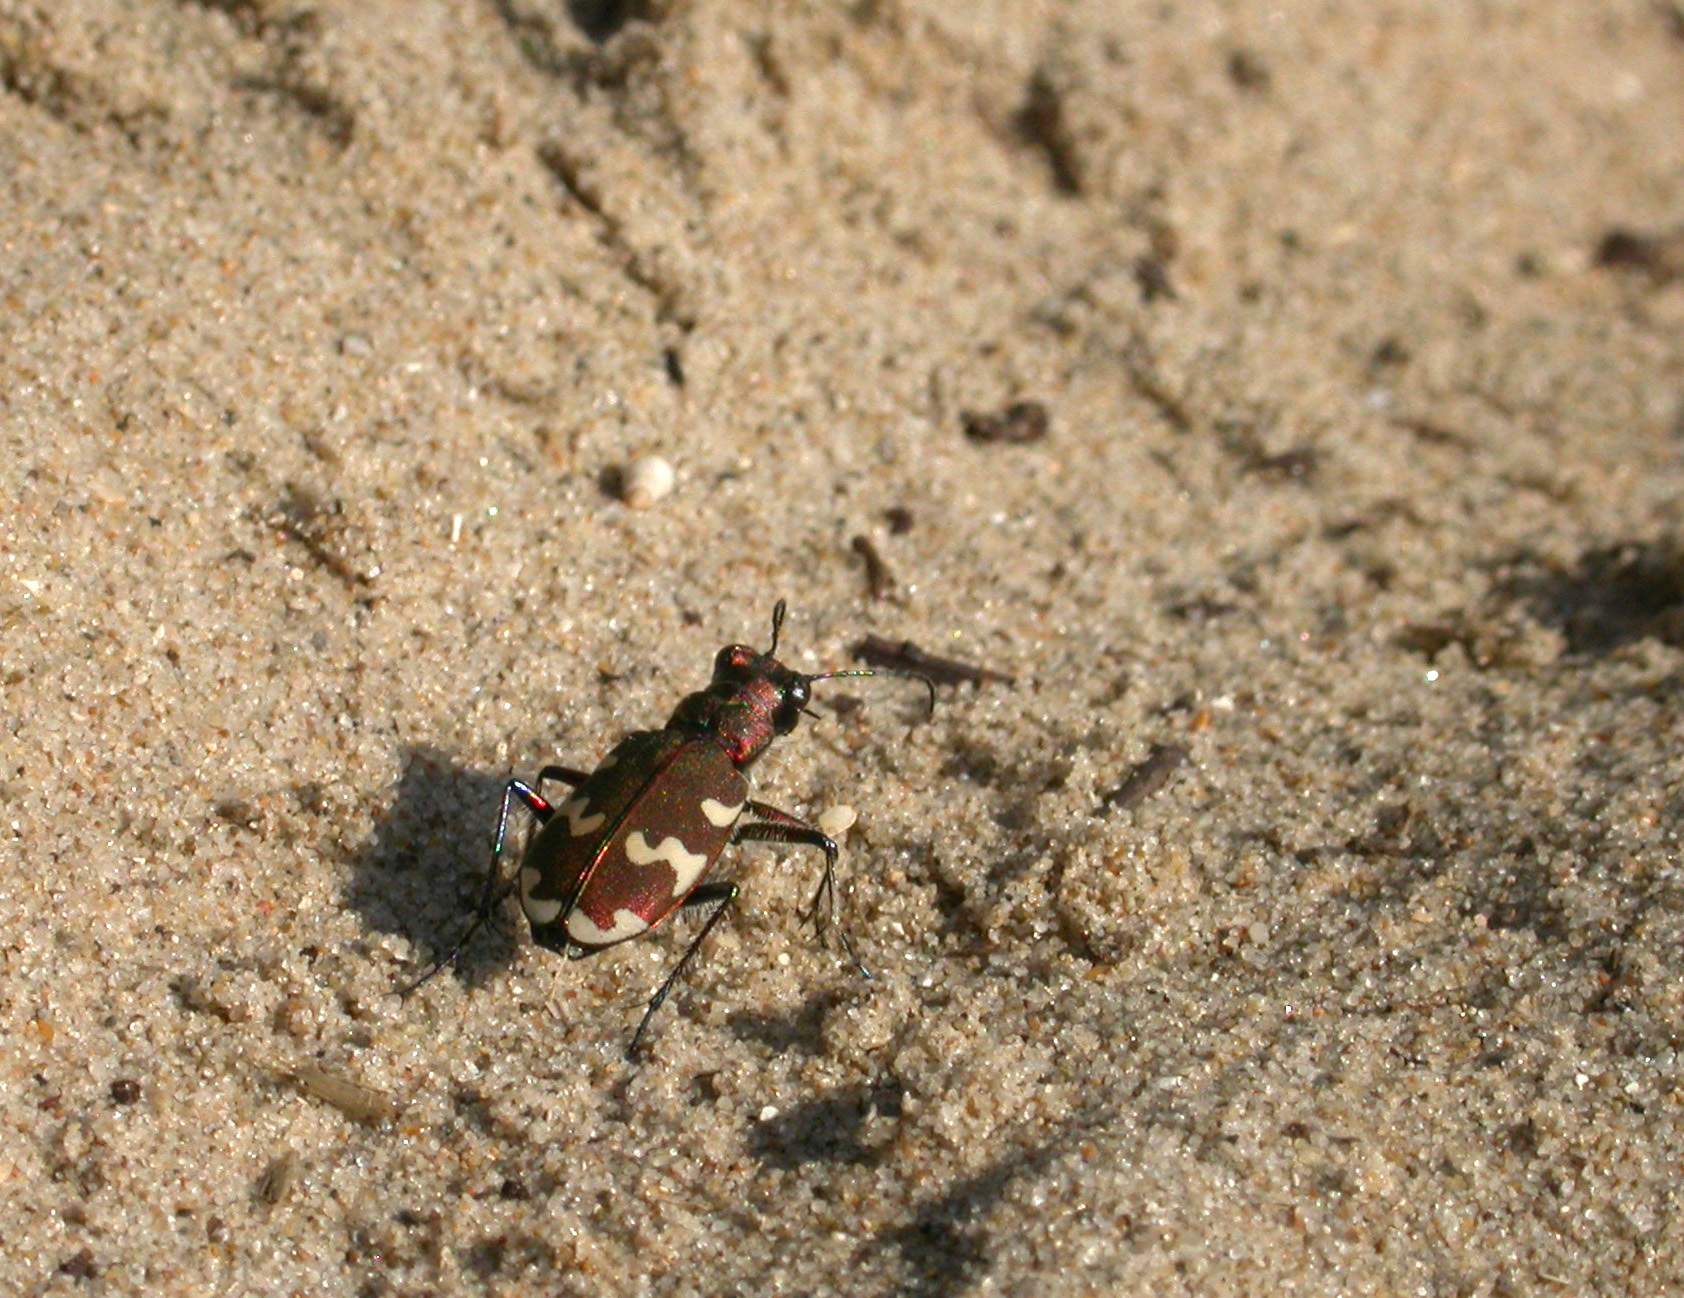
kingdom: Animalia
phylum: Arthropoda
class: Insecta
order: Coleoptera
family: Carabidae
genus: Cicindela
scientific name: Cicindela hybrida
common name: Northern dune tiger beetle
